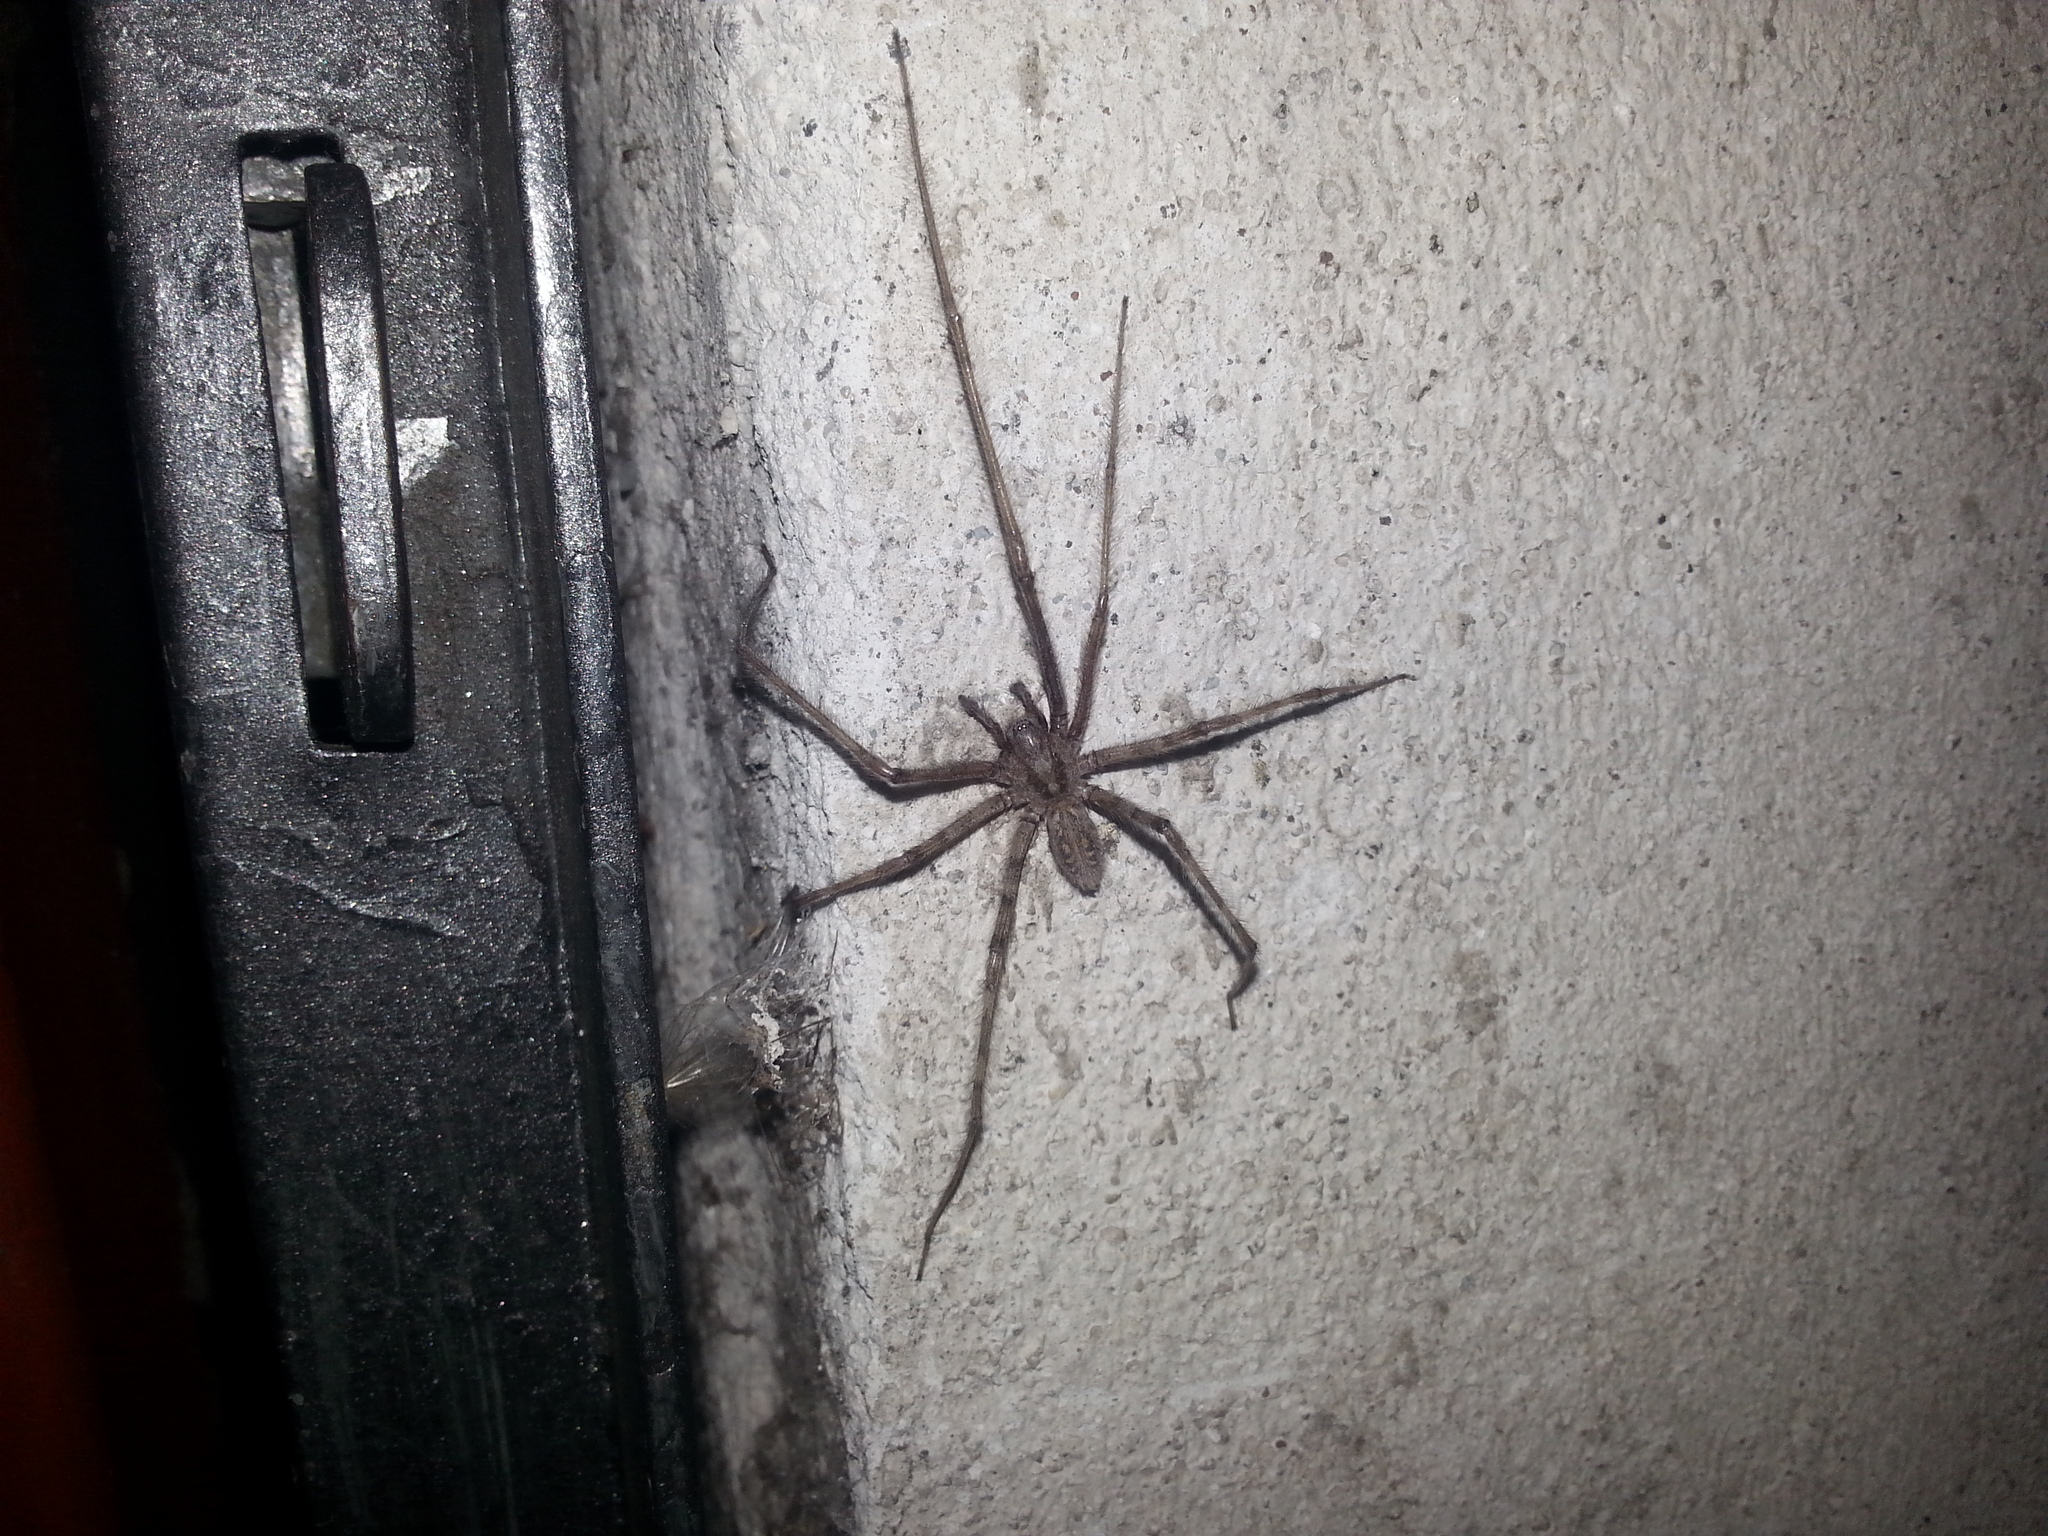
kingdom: Animalia
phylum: Arthropoda
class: Arachnida
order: Araneae
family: Agelenidae
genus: Tegenaria
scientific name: Tegenaria parietina
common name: Cardinal spider
